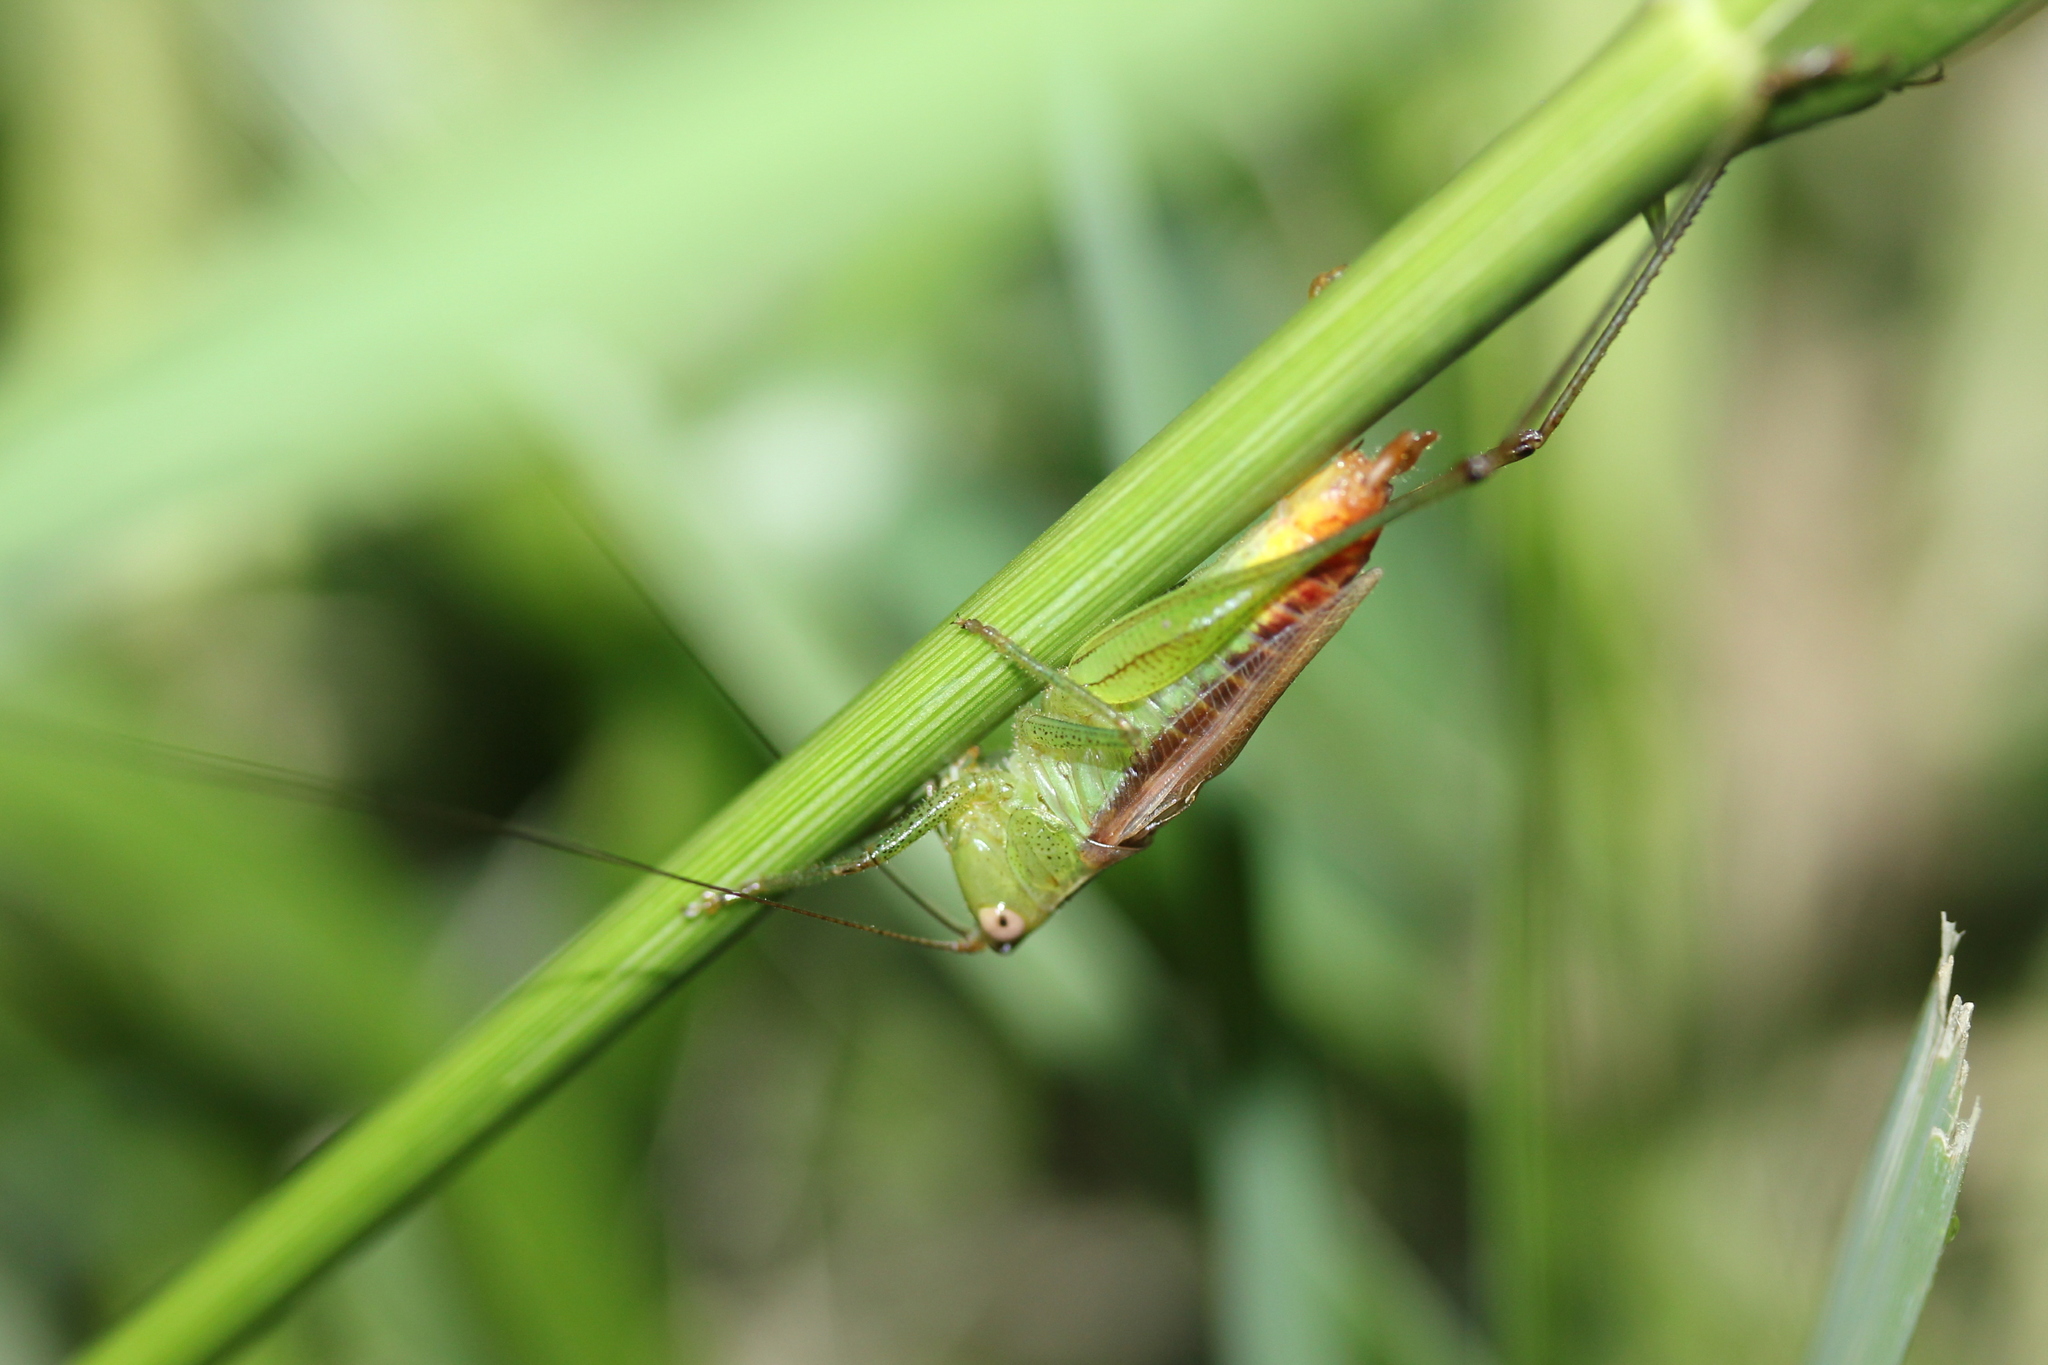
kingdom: Animalia
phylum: Arthropoda
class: Insecta
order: Orthoptera
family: Tettigoniidae
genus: Conocephalus
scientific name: Conocephalus brevipennis
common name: Short-winged meadow katydid
